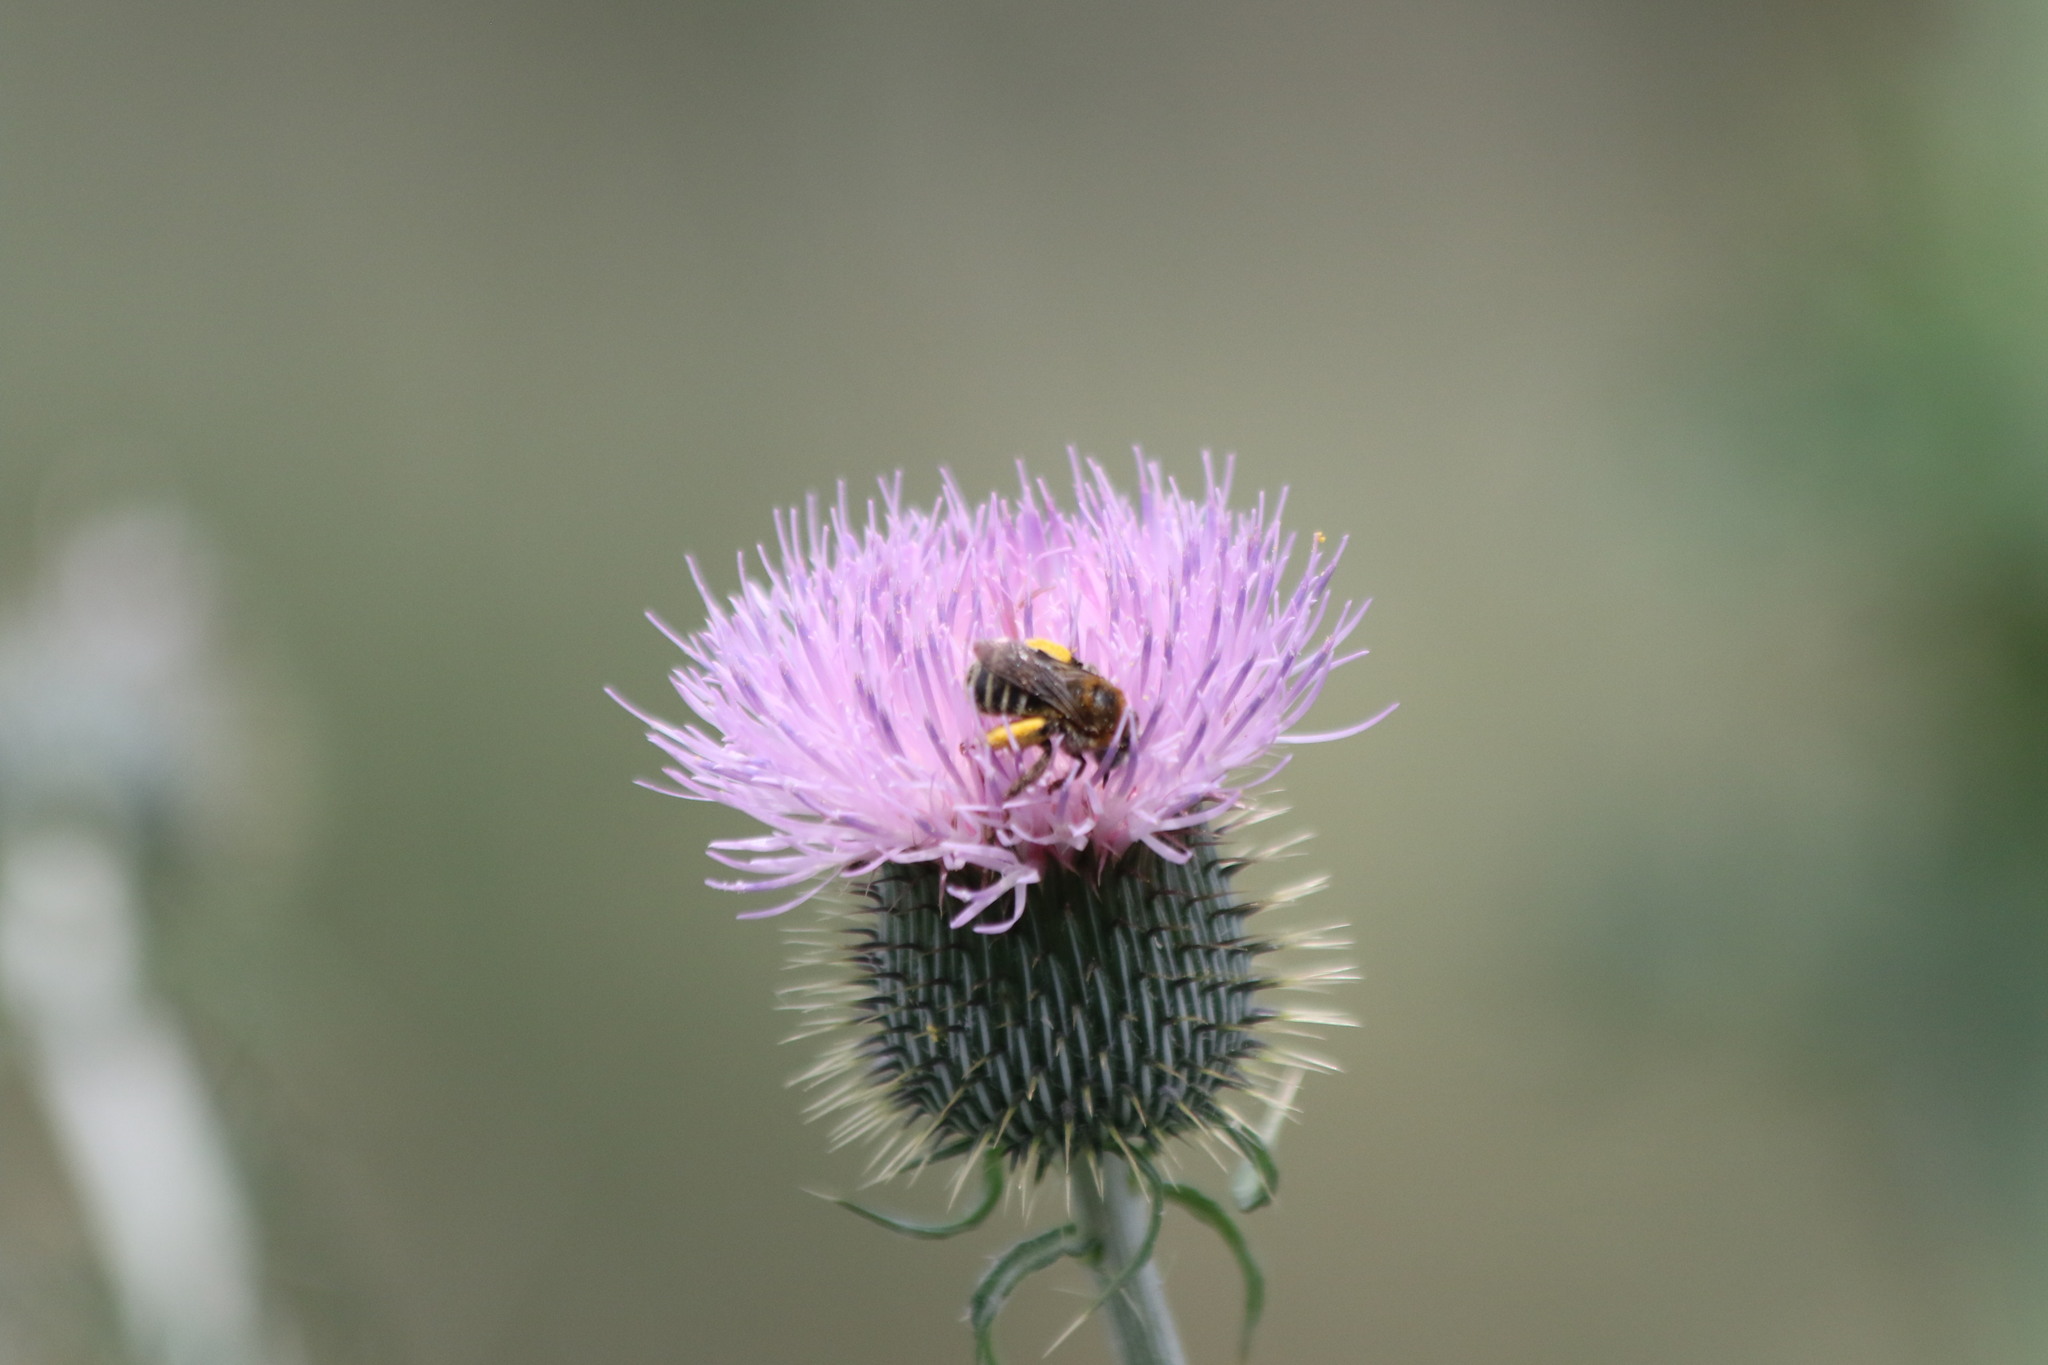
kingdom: Animalia
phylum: Arthropoda
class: Insecta
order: Hymenoptera
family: Apidae
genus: Melissodes
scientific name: Melissodes tepaneca
